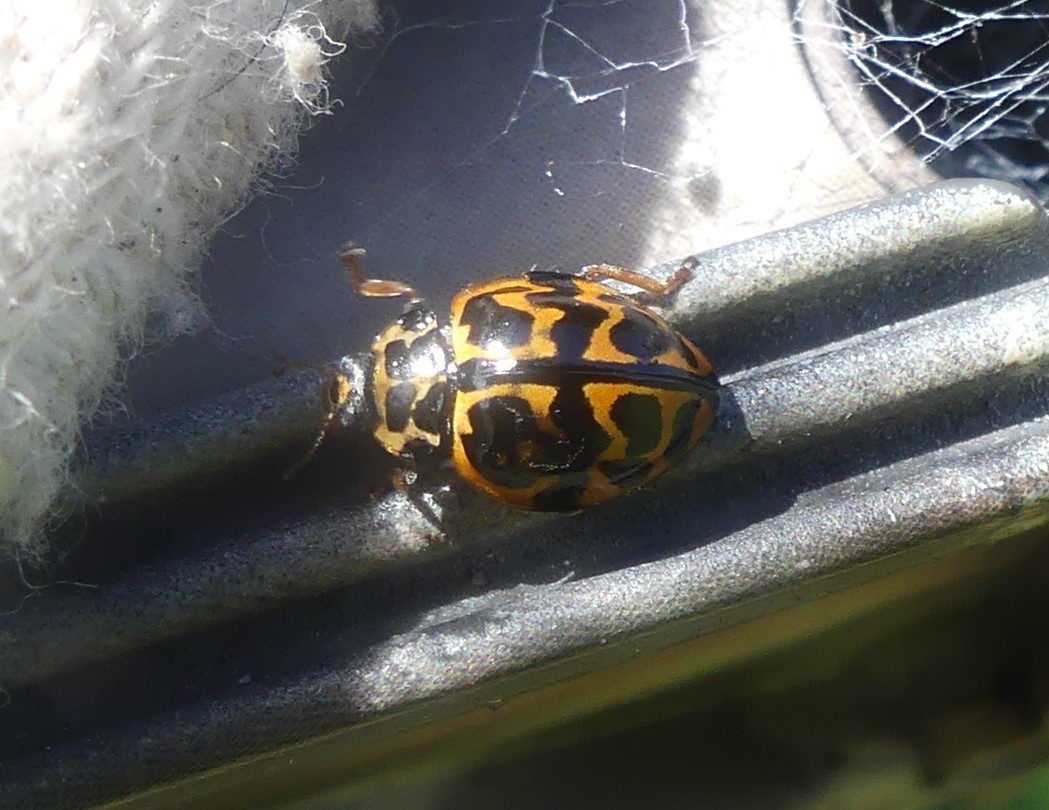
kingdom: Animalia
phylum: Arthropoda
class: Insecta
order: Coleoptera
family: Coccinellidae
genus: Cleobora
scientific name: Cleobora
